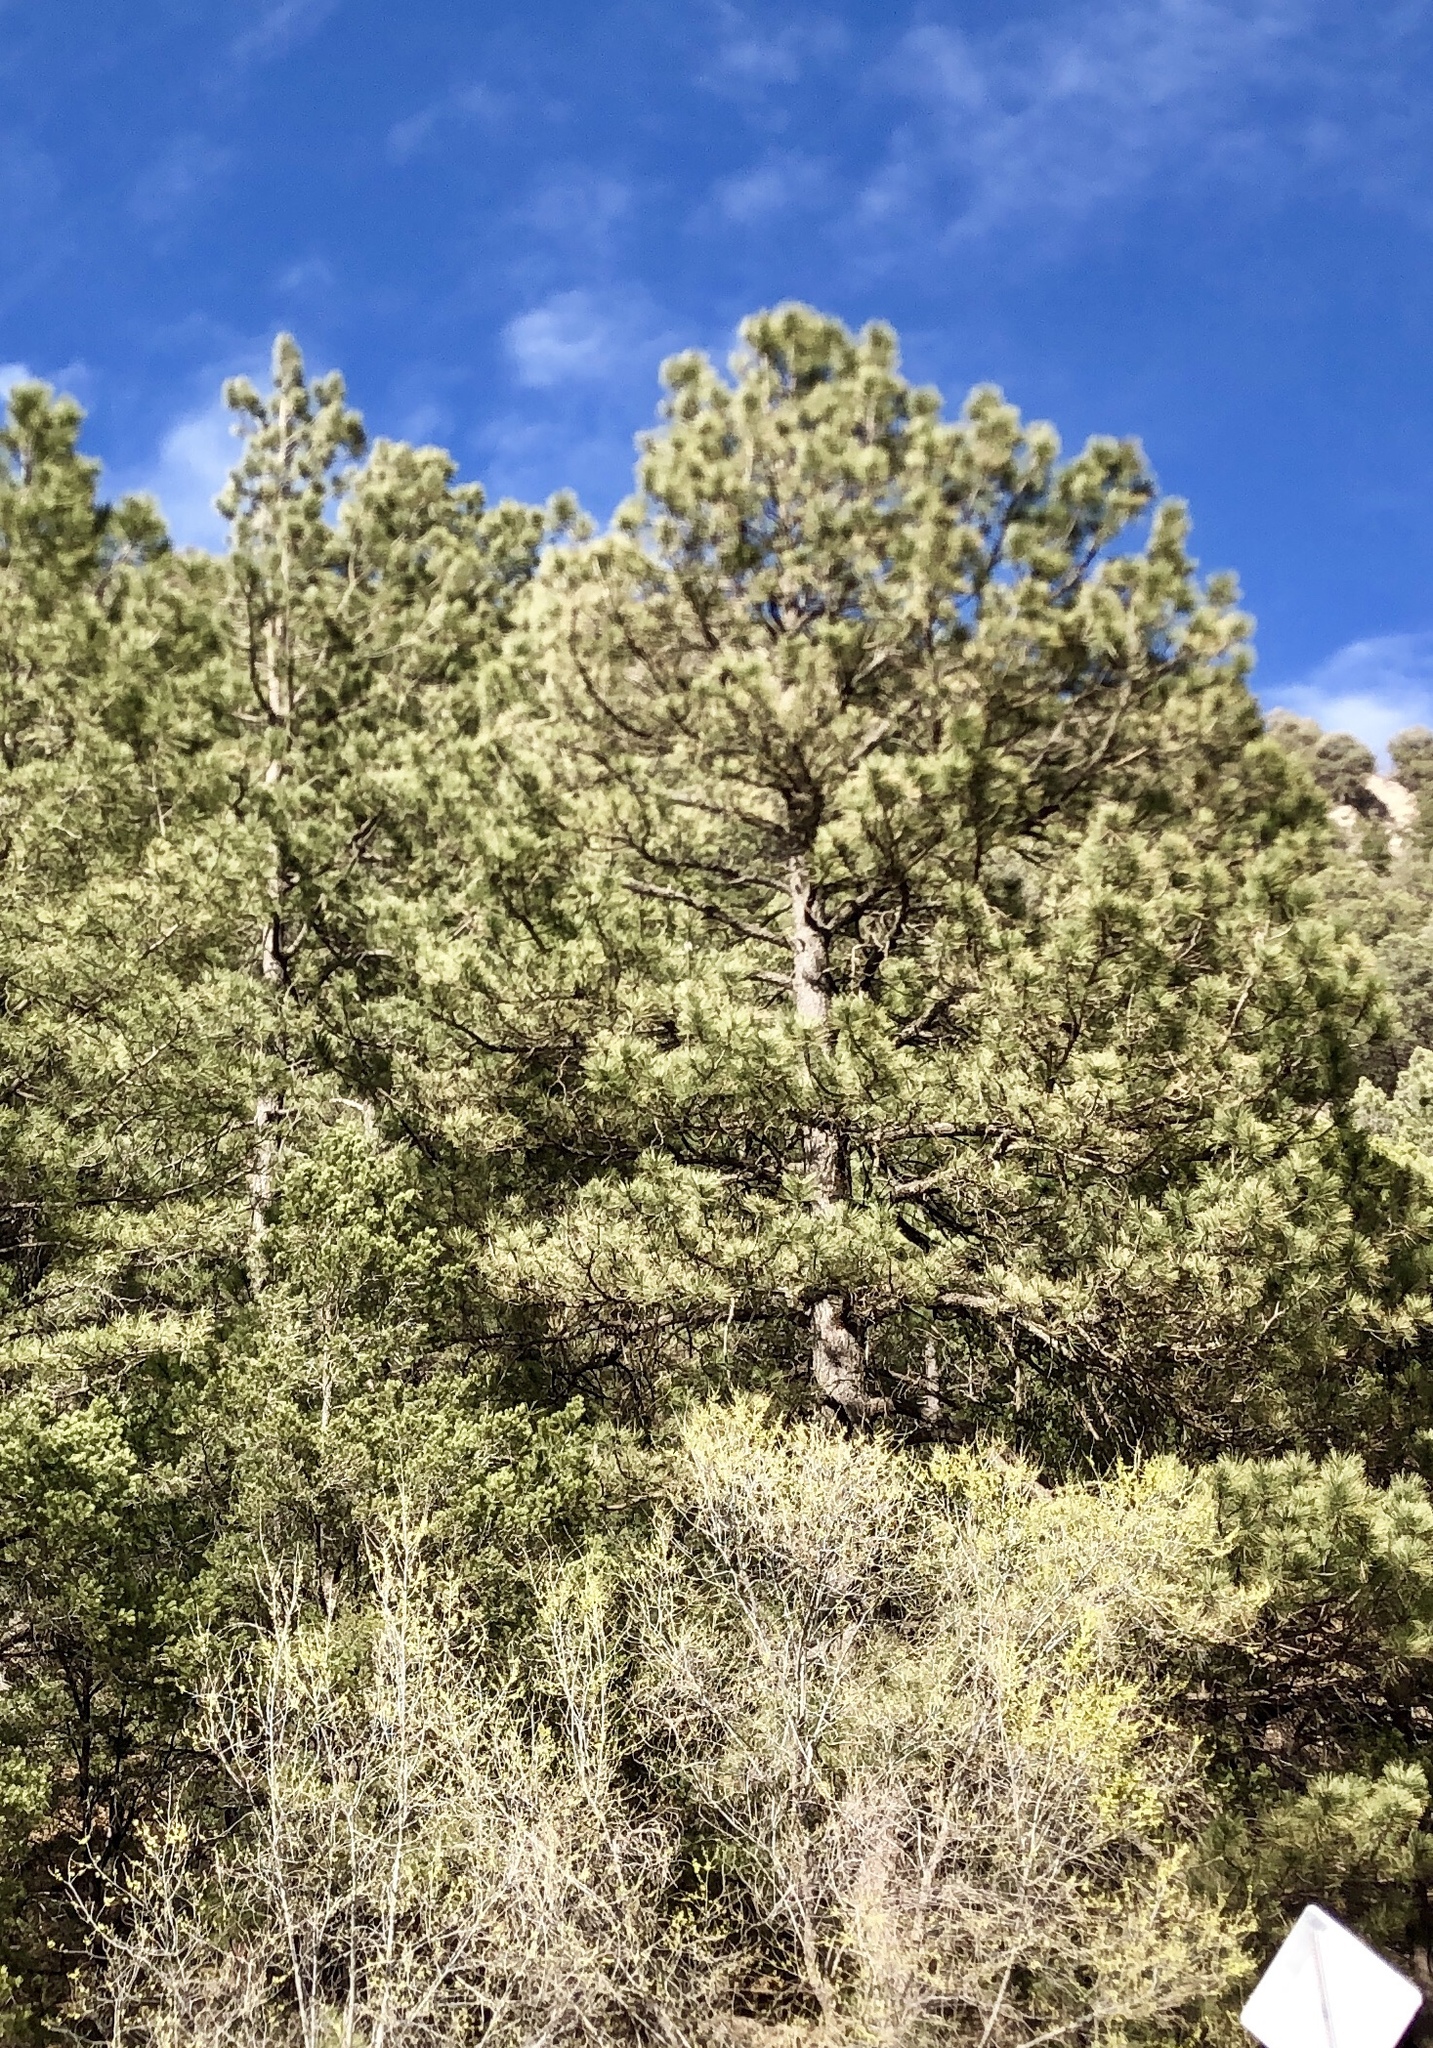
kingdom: Plantae
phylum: Tracheophyta
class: Pinopsida
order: Pinales
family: Pinaceae
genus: Pinus
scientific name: Pinus ponderosa
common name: Western yellow-pine
